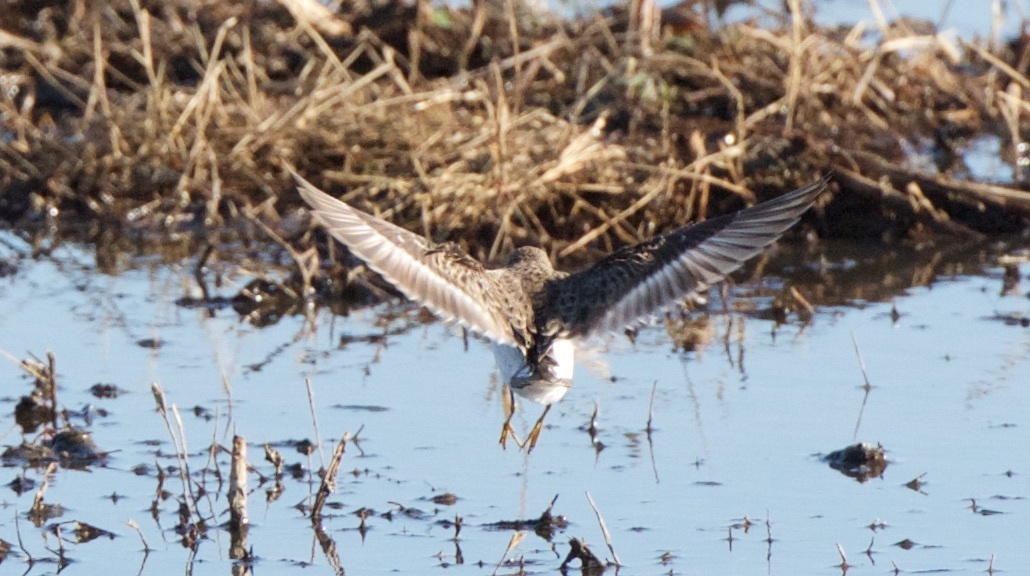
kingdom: Animalia
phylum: Chordata
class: Aves
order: Charadriiformes
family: Scolopacidae
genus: Calidris
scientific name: Calidris minutilla
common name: Least sandpiper
